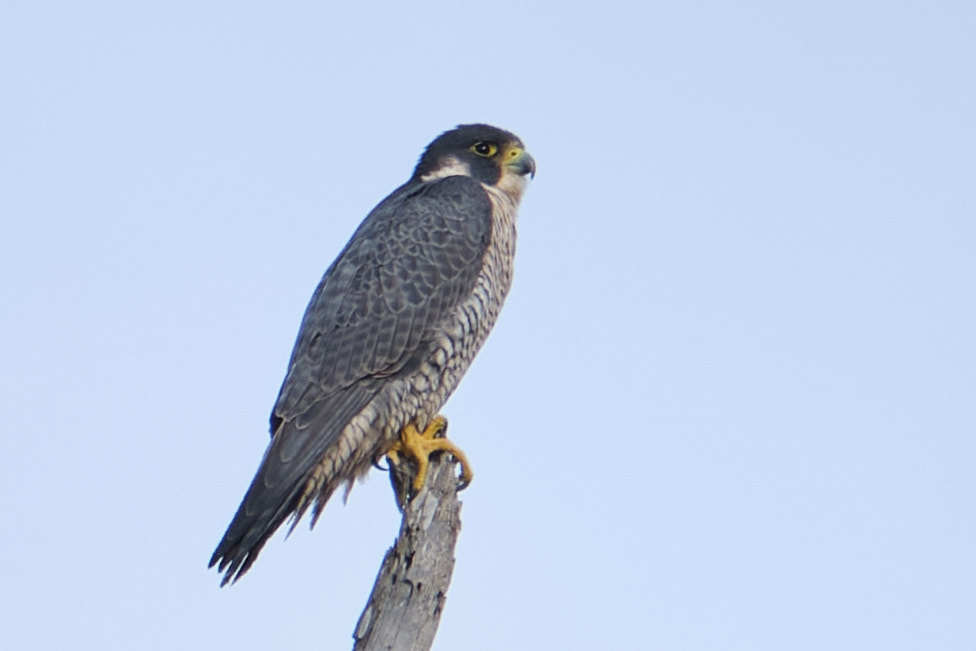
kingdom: Animalia
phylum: Chordata
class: Aves
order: Falconiformes
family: Falconidae
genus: Falco
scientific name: Falco peregrinus
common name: Peregrine falcon
